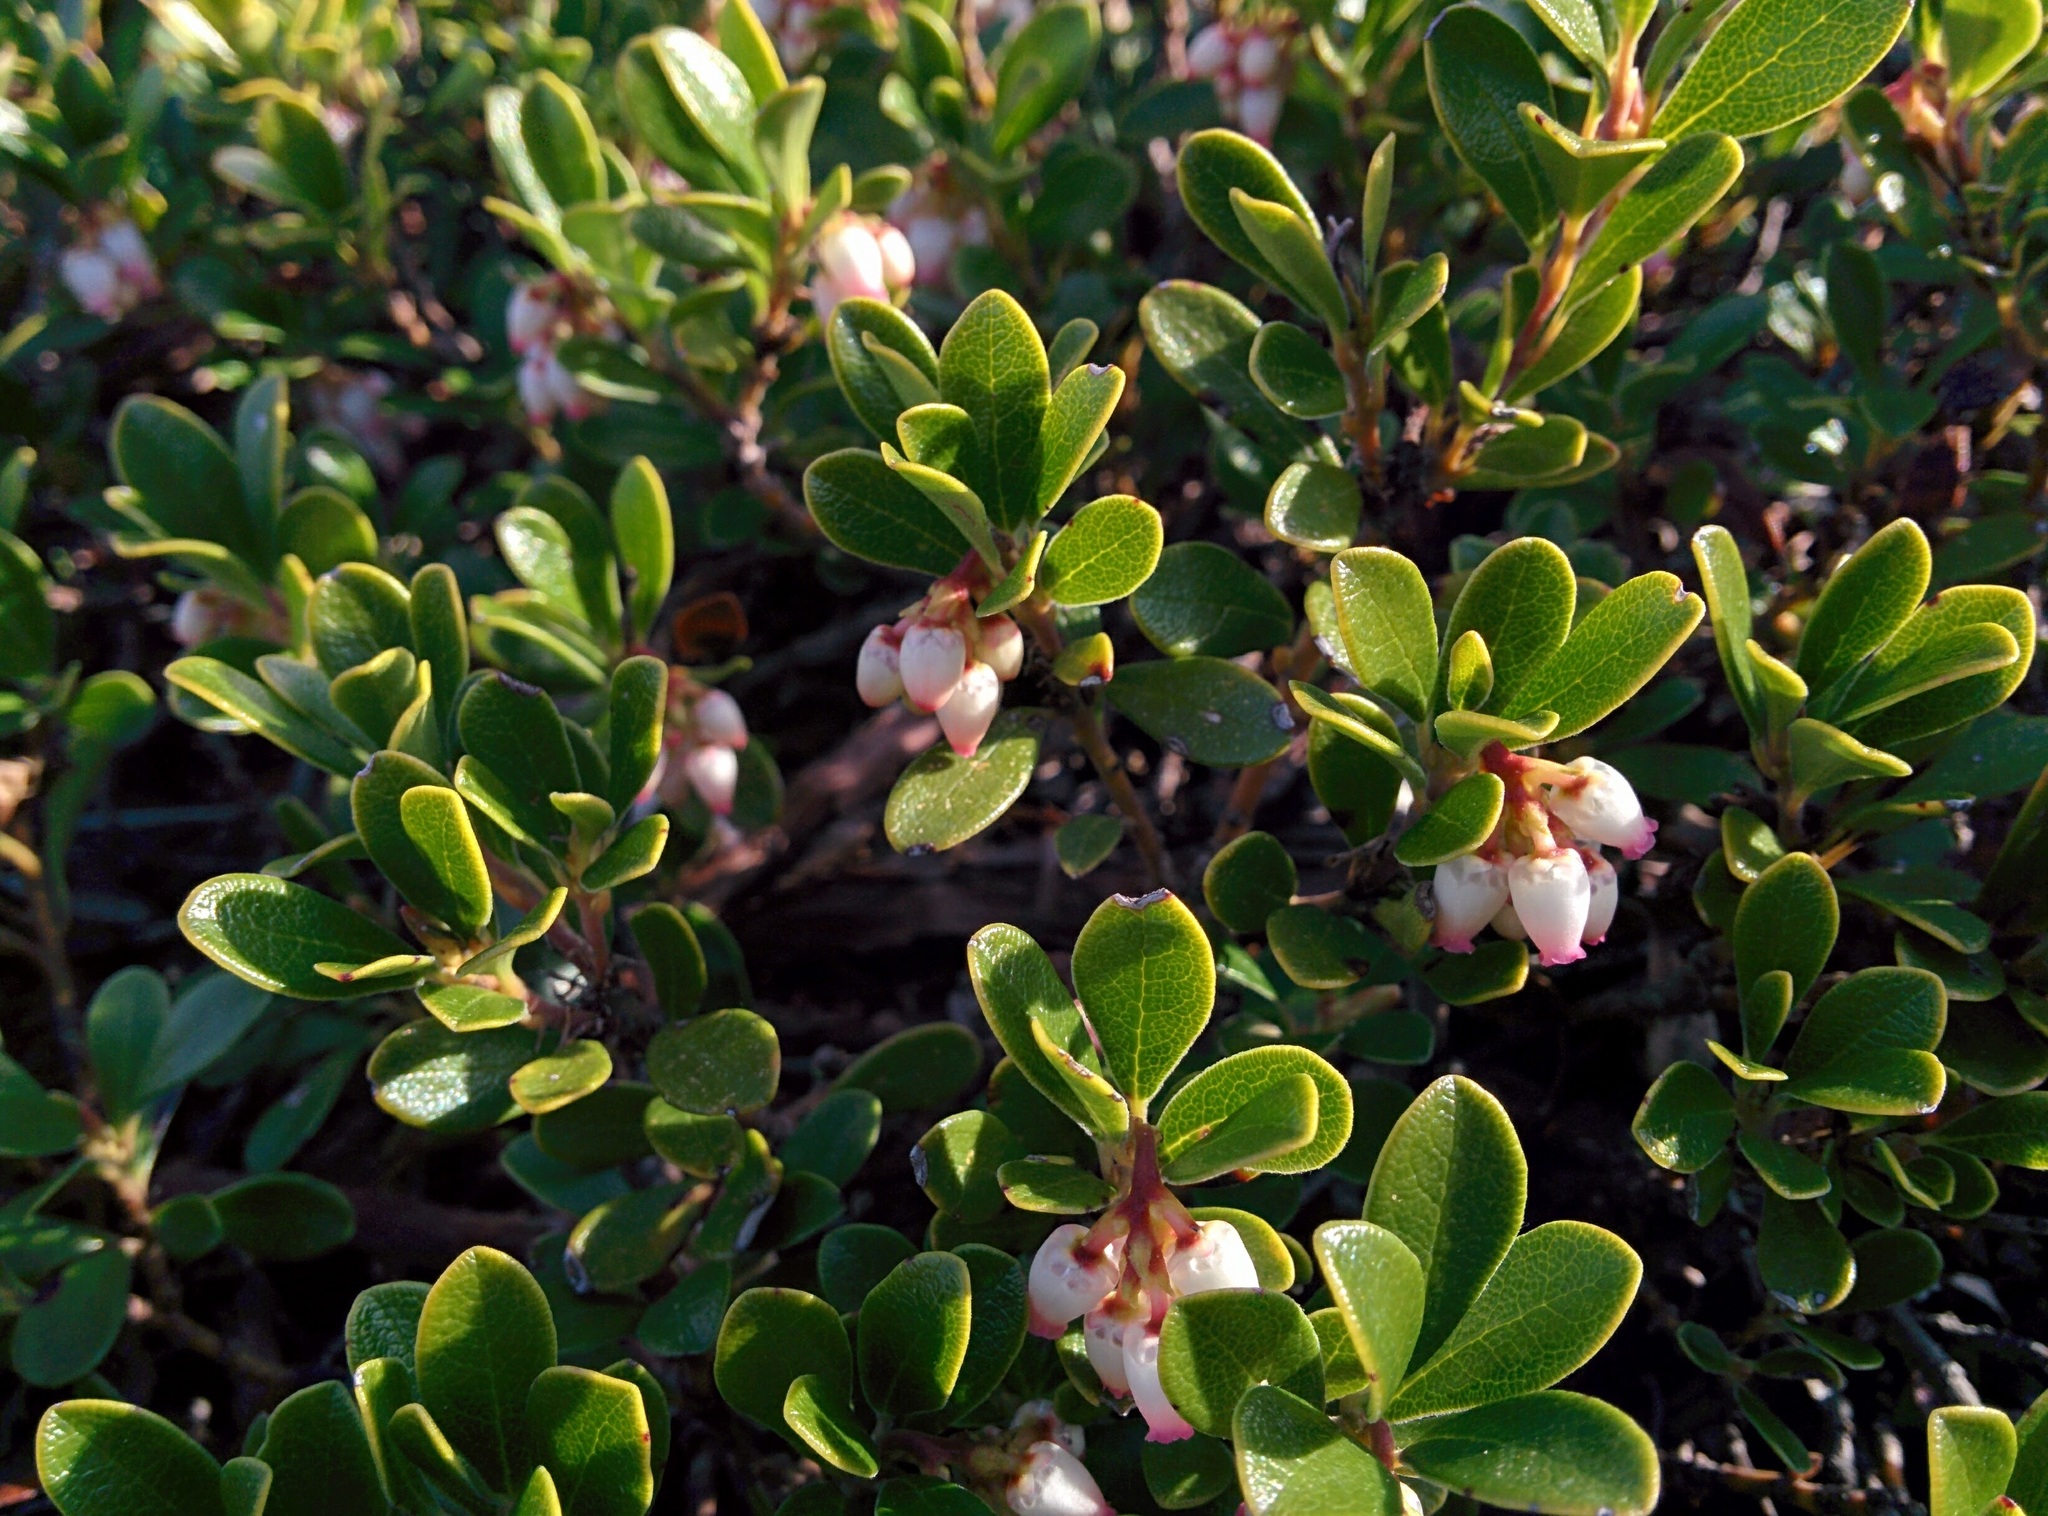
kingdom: Plantae
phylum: Tracheophyta
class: Magnoliopsida
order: Ericales
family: Ericaceae
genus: Arctostaphylos
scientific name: Arctostaphylos uva-ursi
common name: Bearberry
